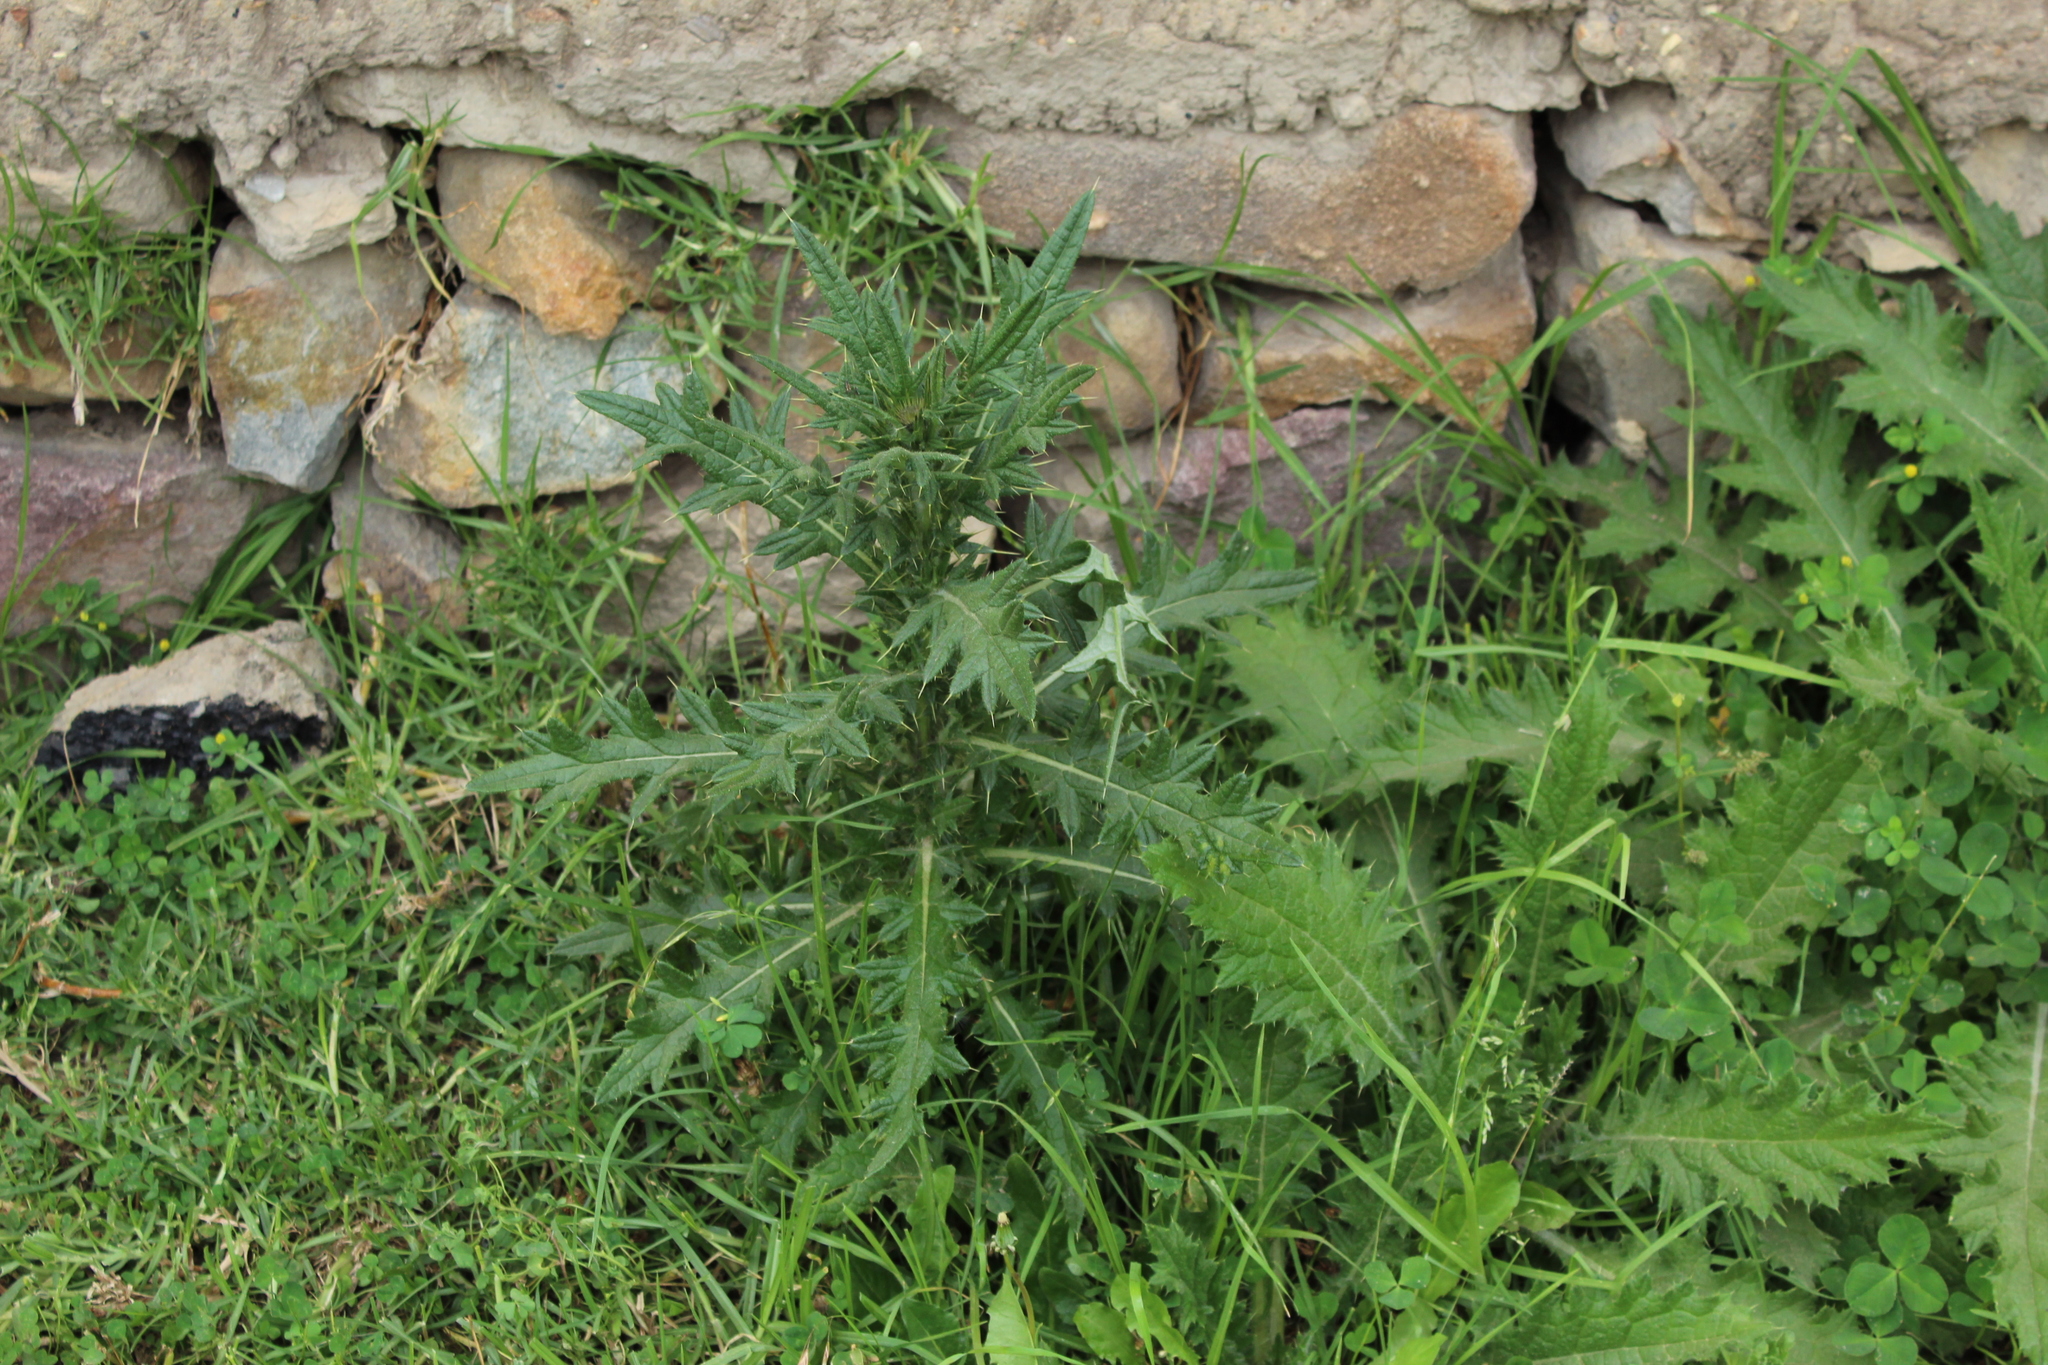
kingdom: Plantae
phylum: Tracheophyta
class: Magnoliopsida
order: Asterales
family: Asteraceae
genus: Cirsium
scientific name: Cirsium vulgare
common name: Bull thistle
